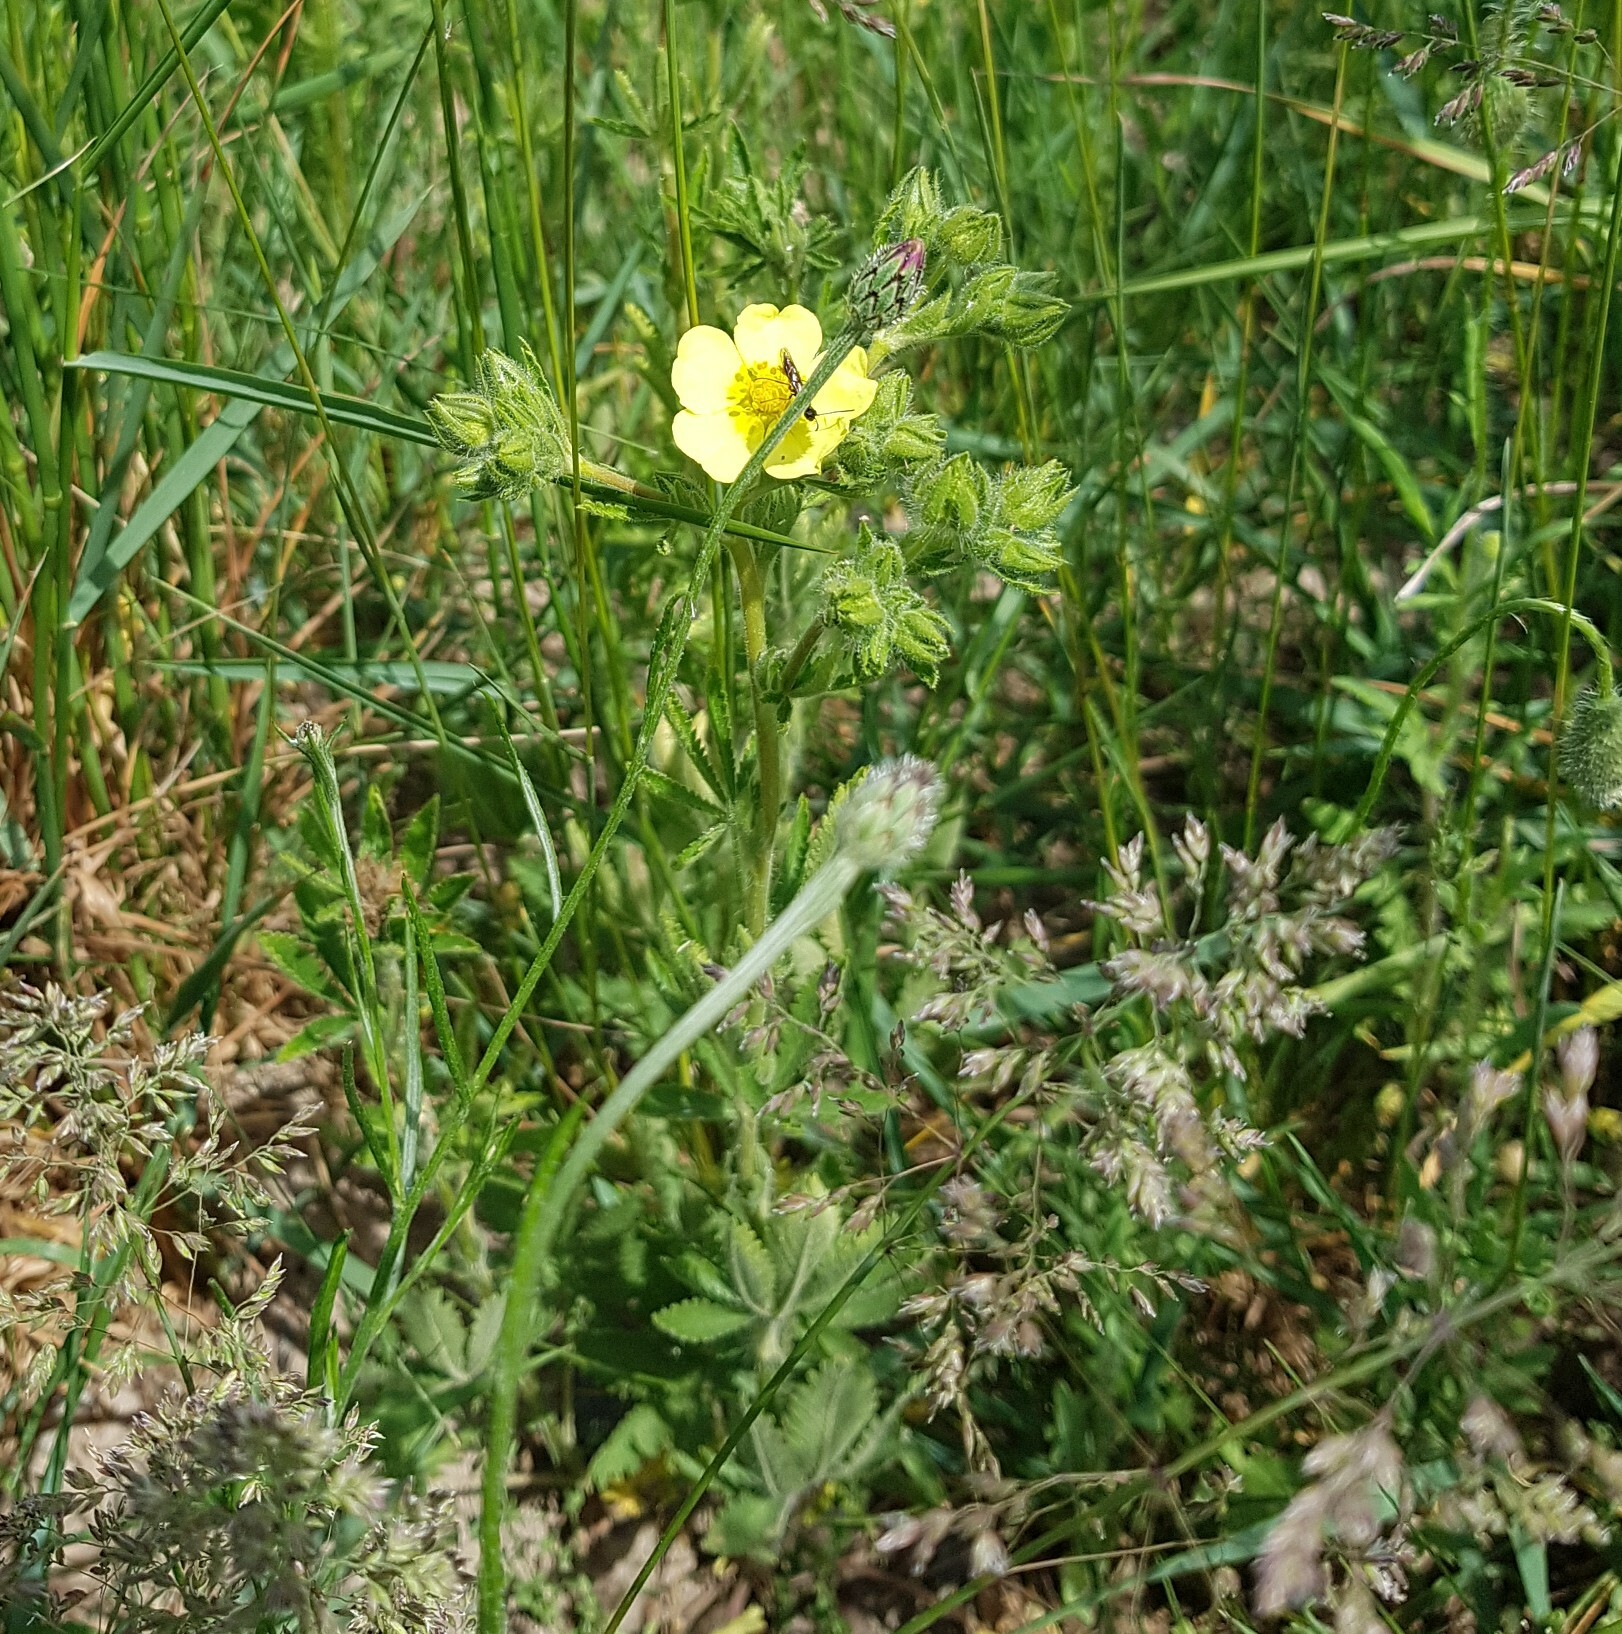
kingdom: Plantae
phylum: Tracheophyta
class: Magnoliopsida
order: Rosales
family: Rosaceae
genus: Potentilla
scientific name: Potentilla recta
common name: Sulphur cinquefoil
